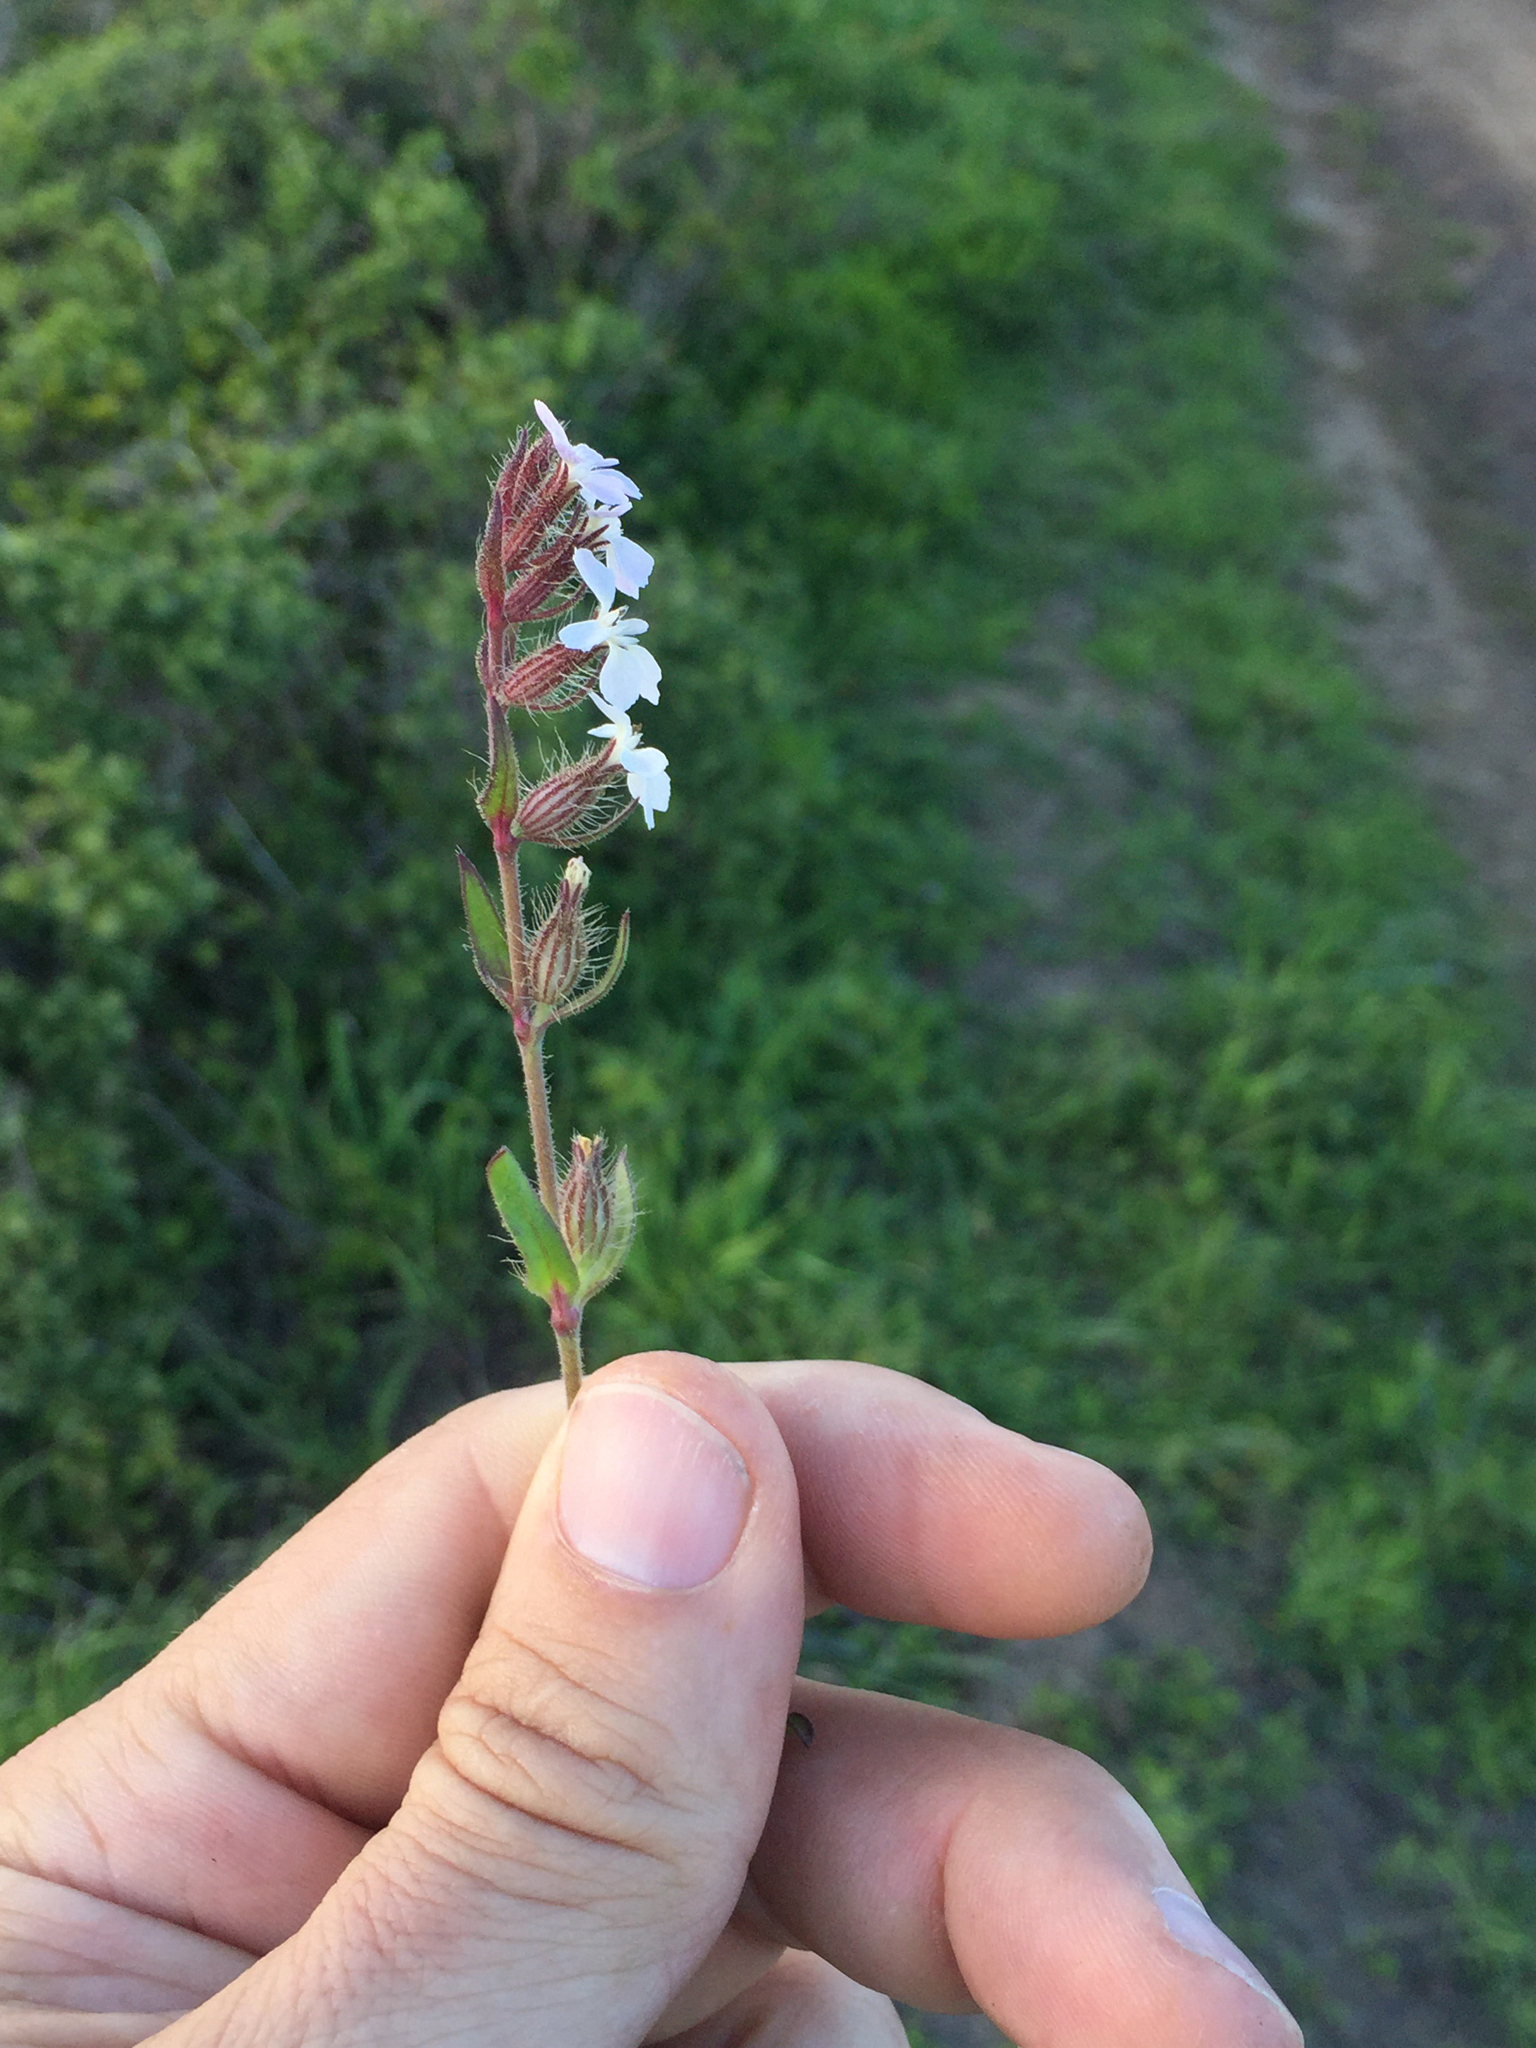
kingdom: Plantae
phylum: Tracheophyta
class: Magnoliopsida
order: Caryophyllales
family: Caryophyllaceae
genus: Silene
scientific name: Silene gallica
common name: Small-flowered catchfly
